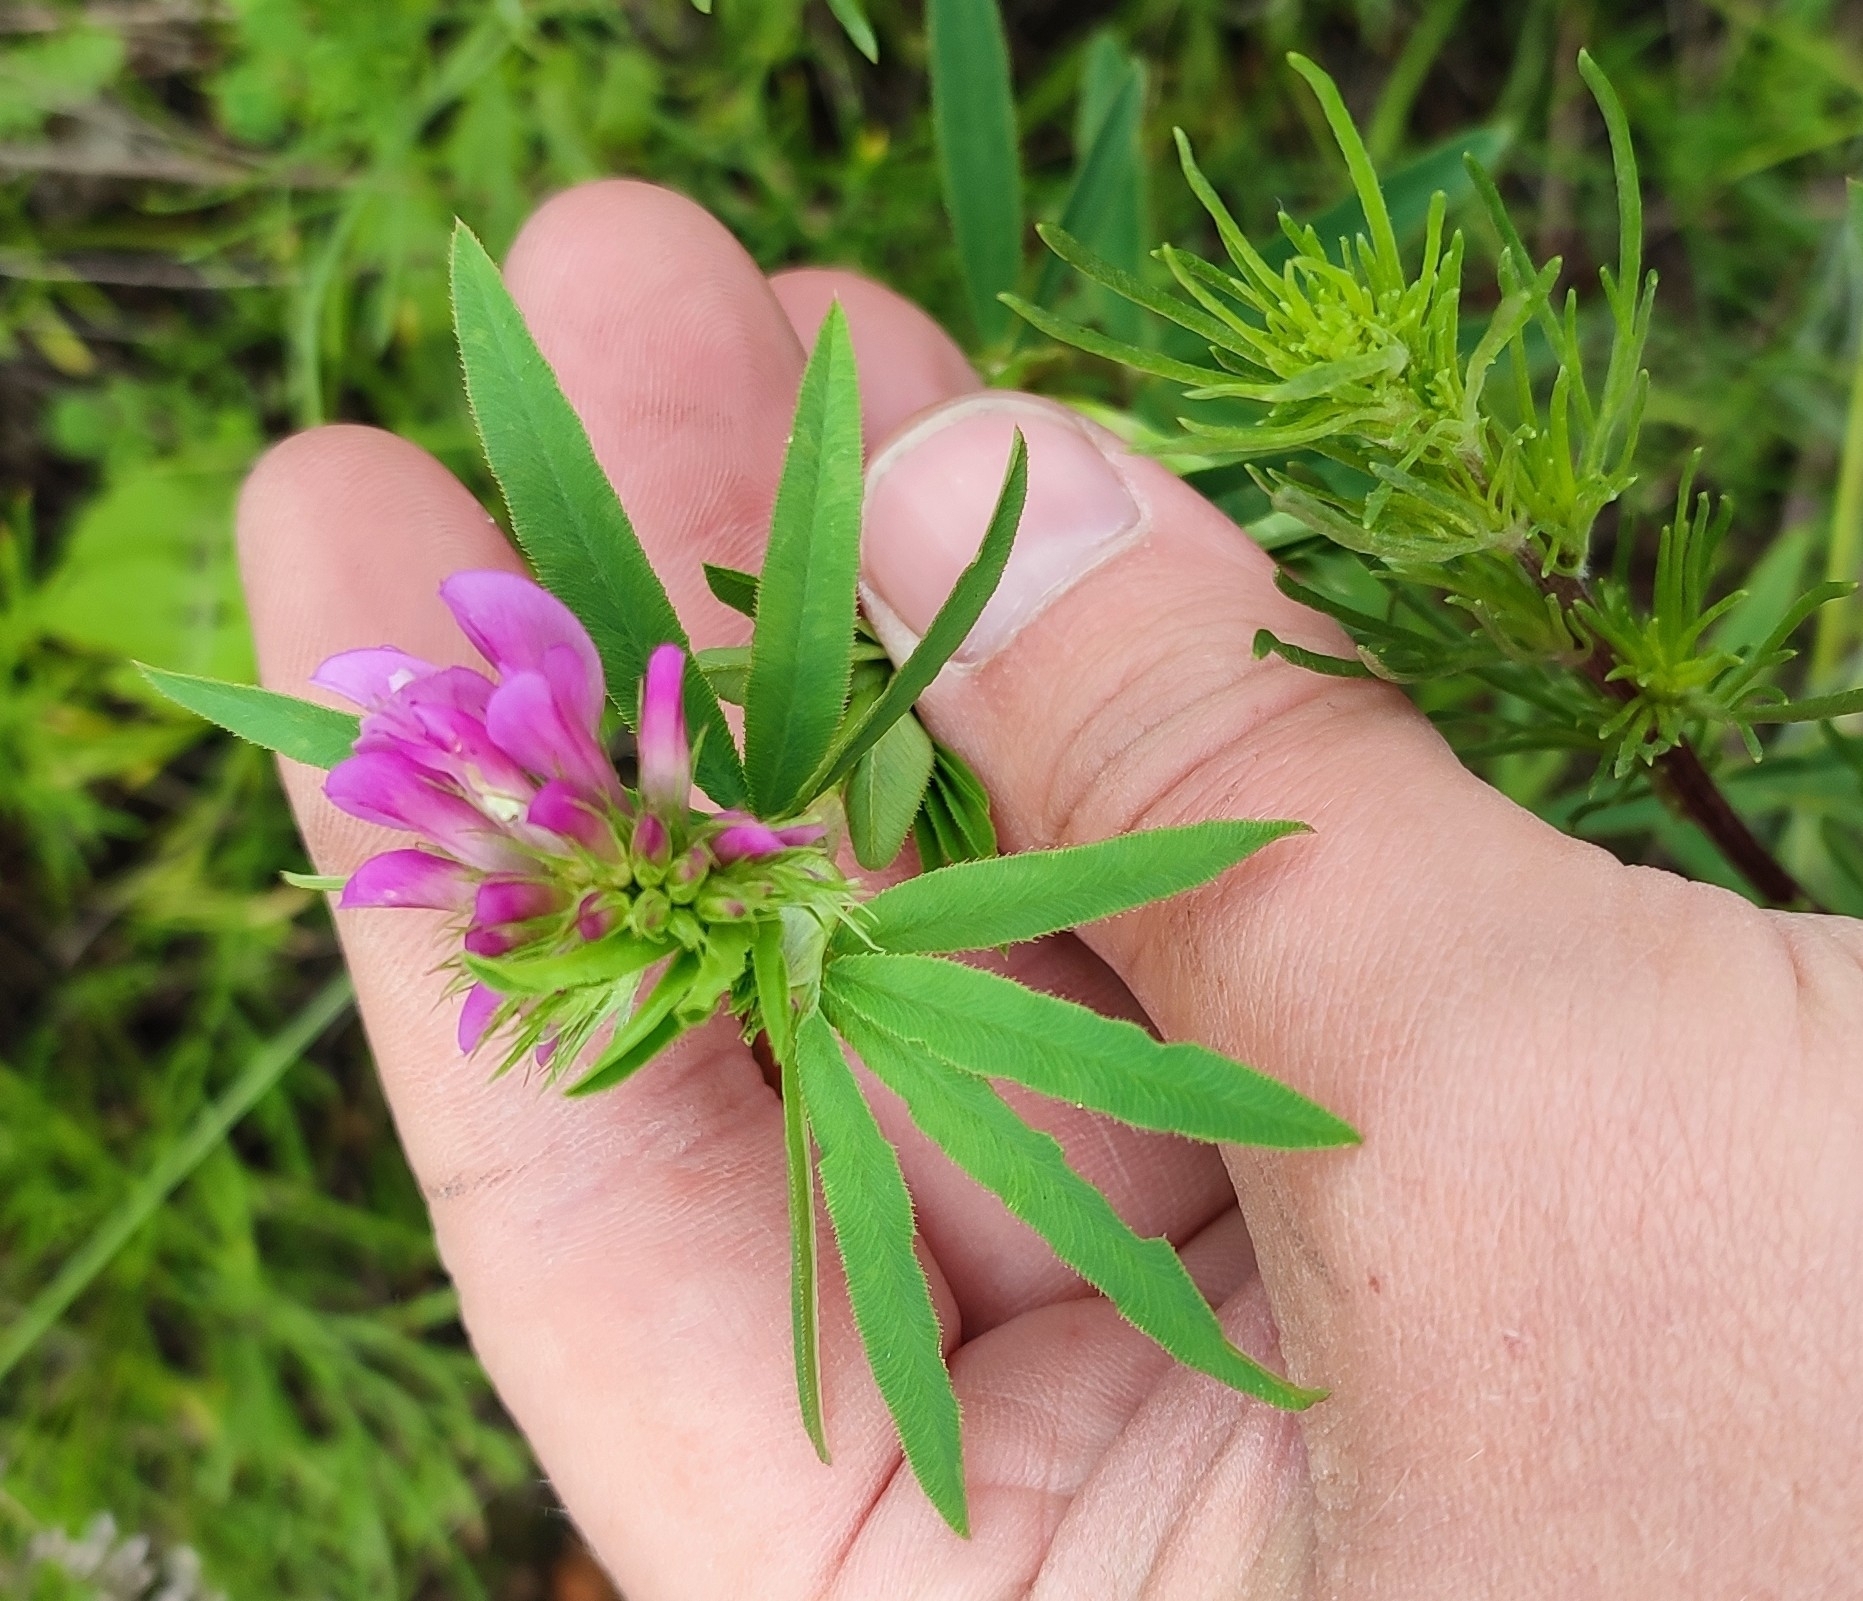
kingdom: Plantae
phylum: Tracheophyta
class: Magnoliopsida
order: Fabales
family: Fabaceae
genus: Trifolium
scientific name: Trifolium lupinaster
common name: Lupine clover
